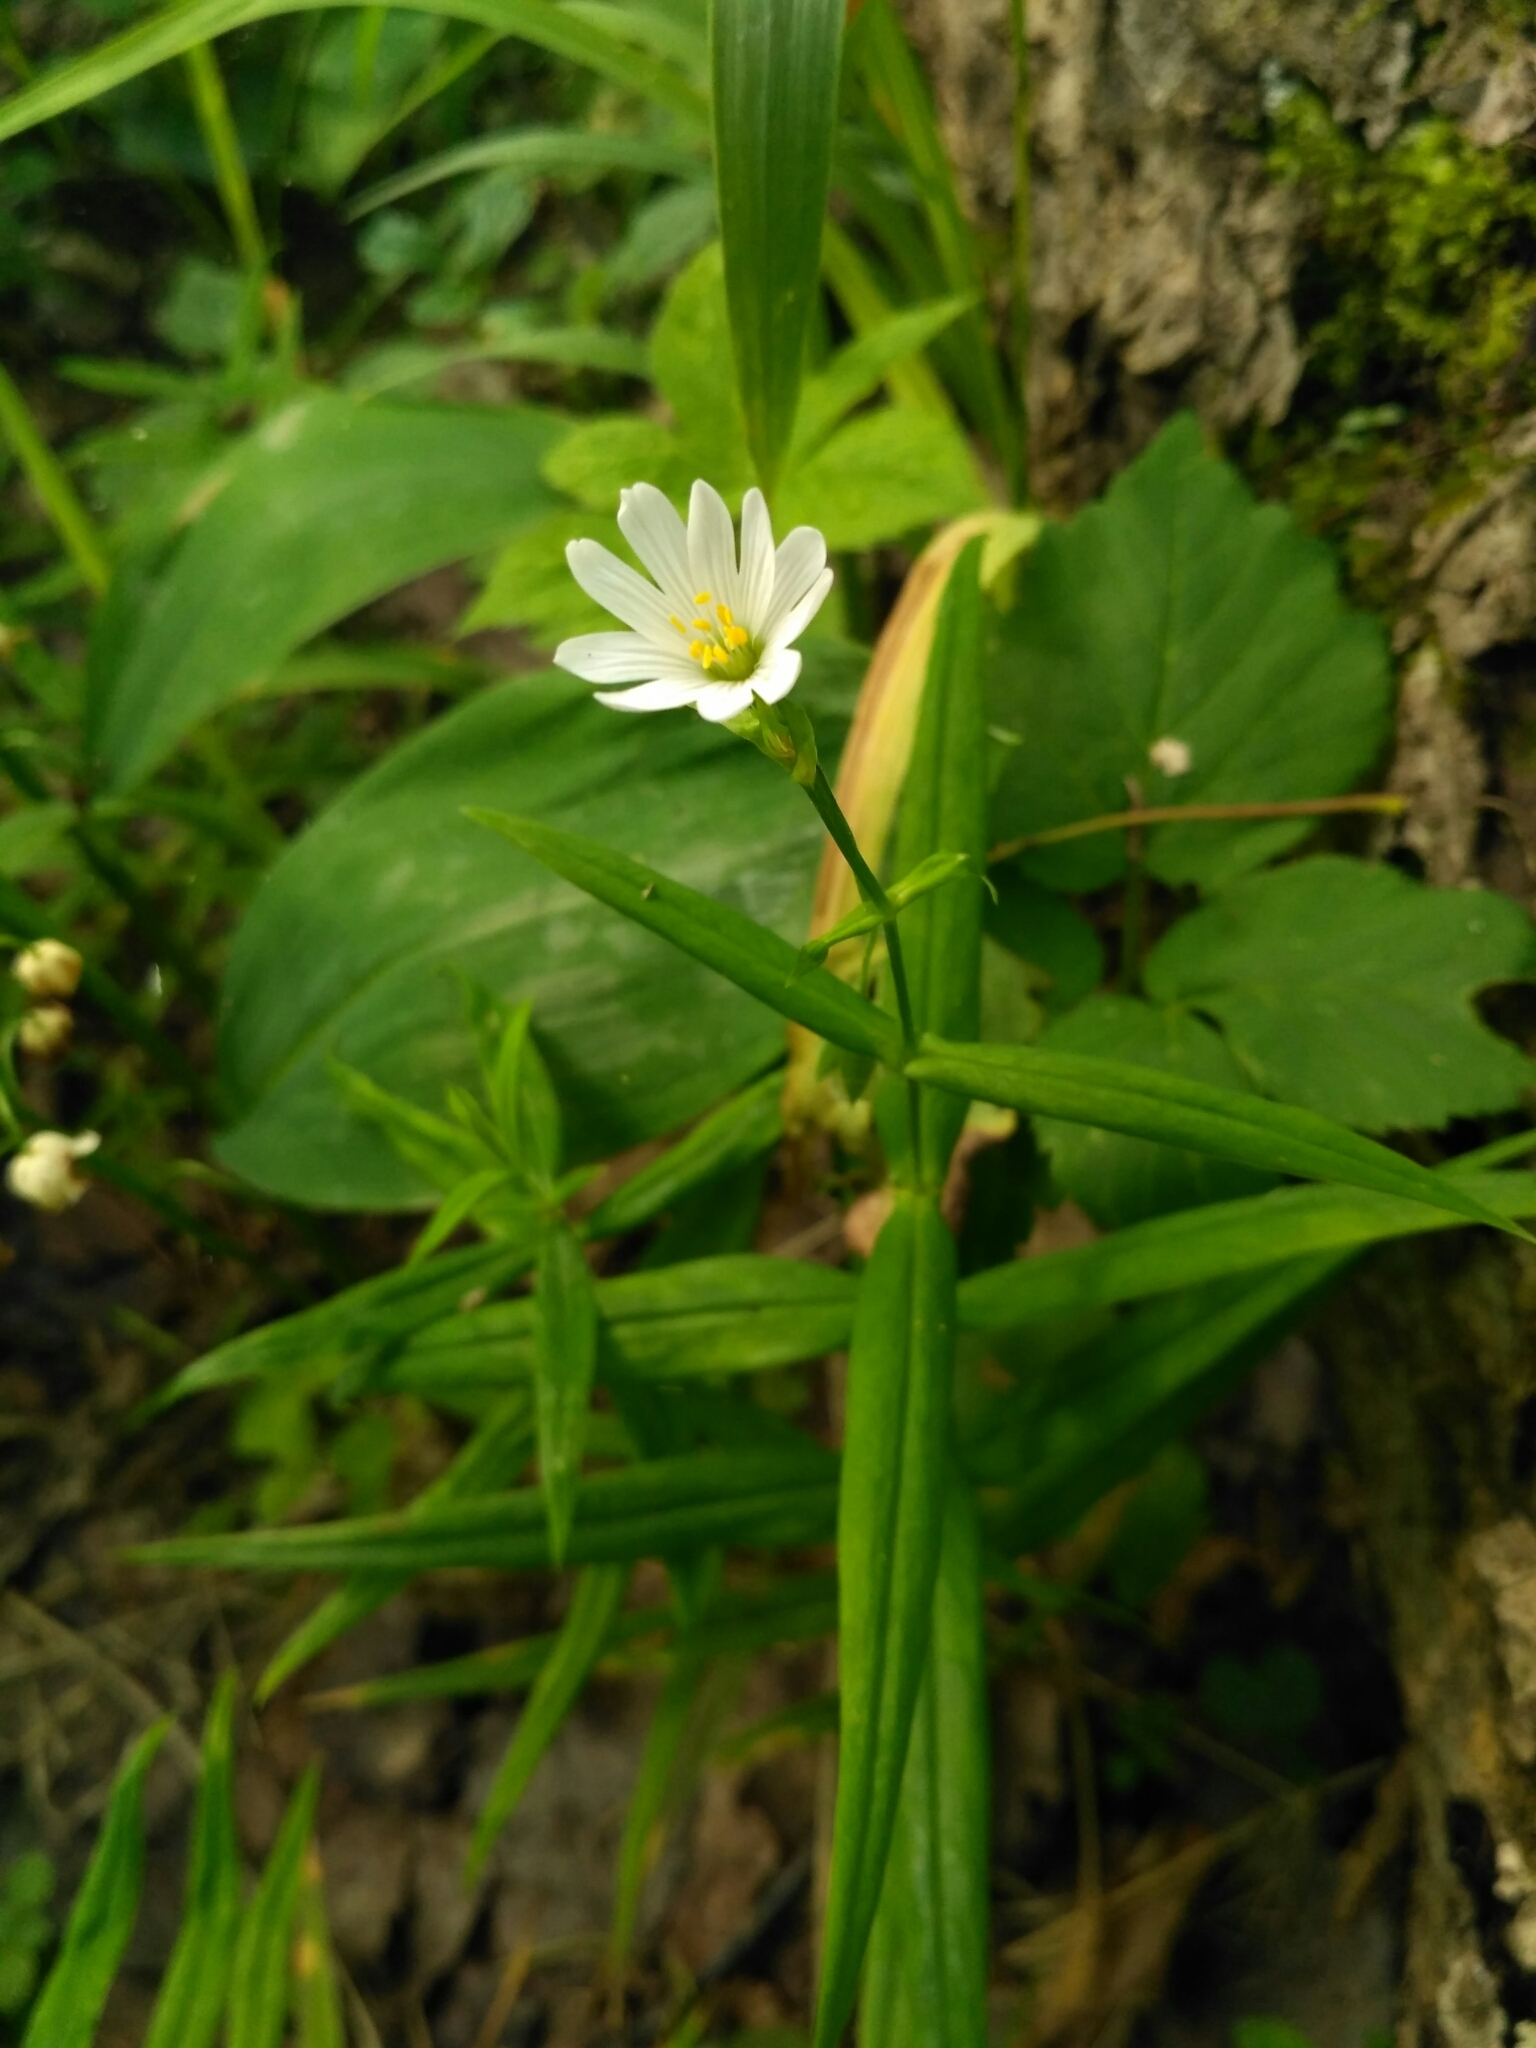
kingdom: Plantae
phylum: Tracheophyta
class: Magnoliopsida
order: Caryophyllales
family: Caryophyllaceae
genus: Rabelera
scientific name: Rabelera holostea
